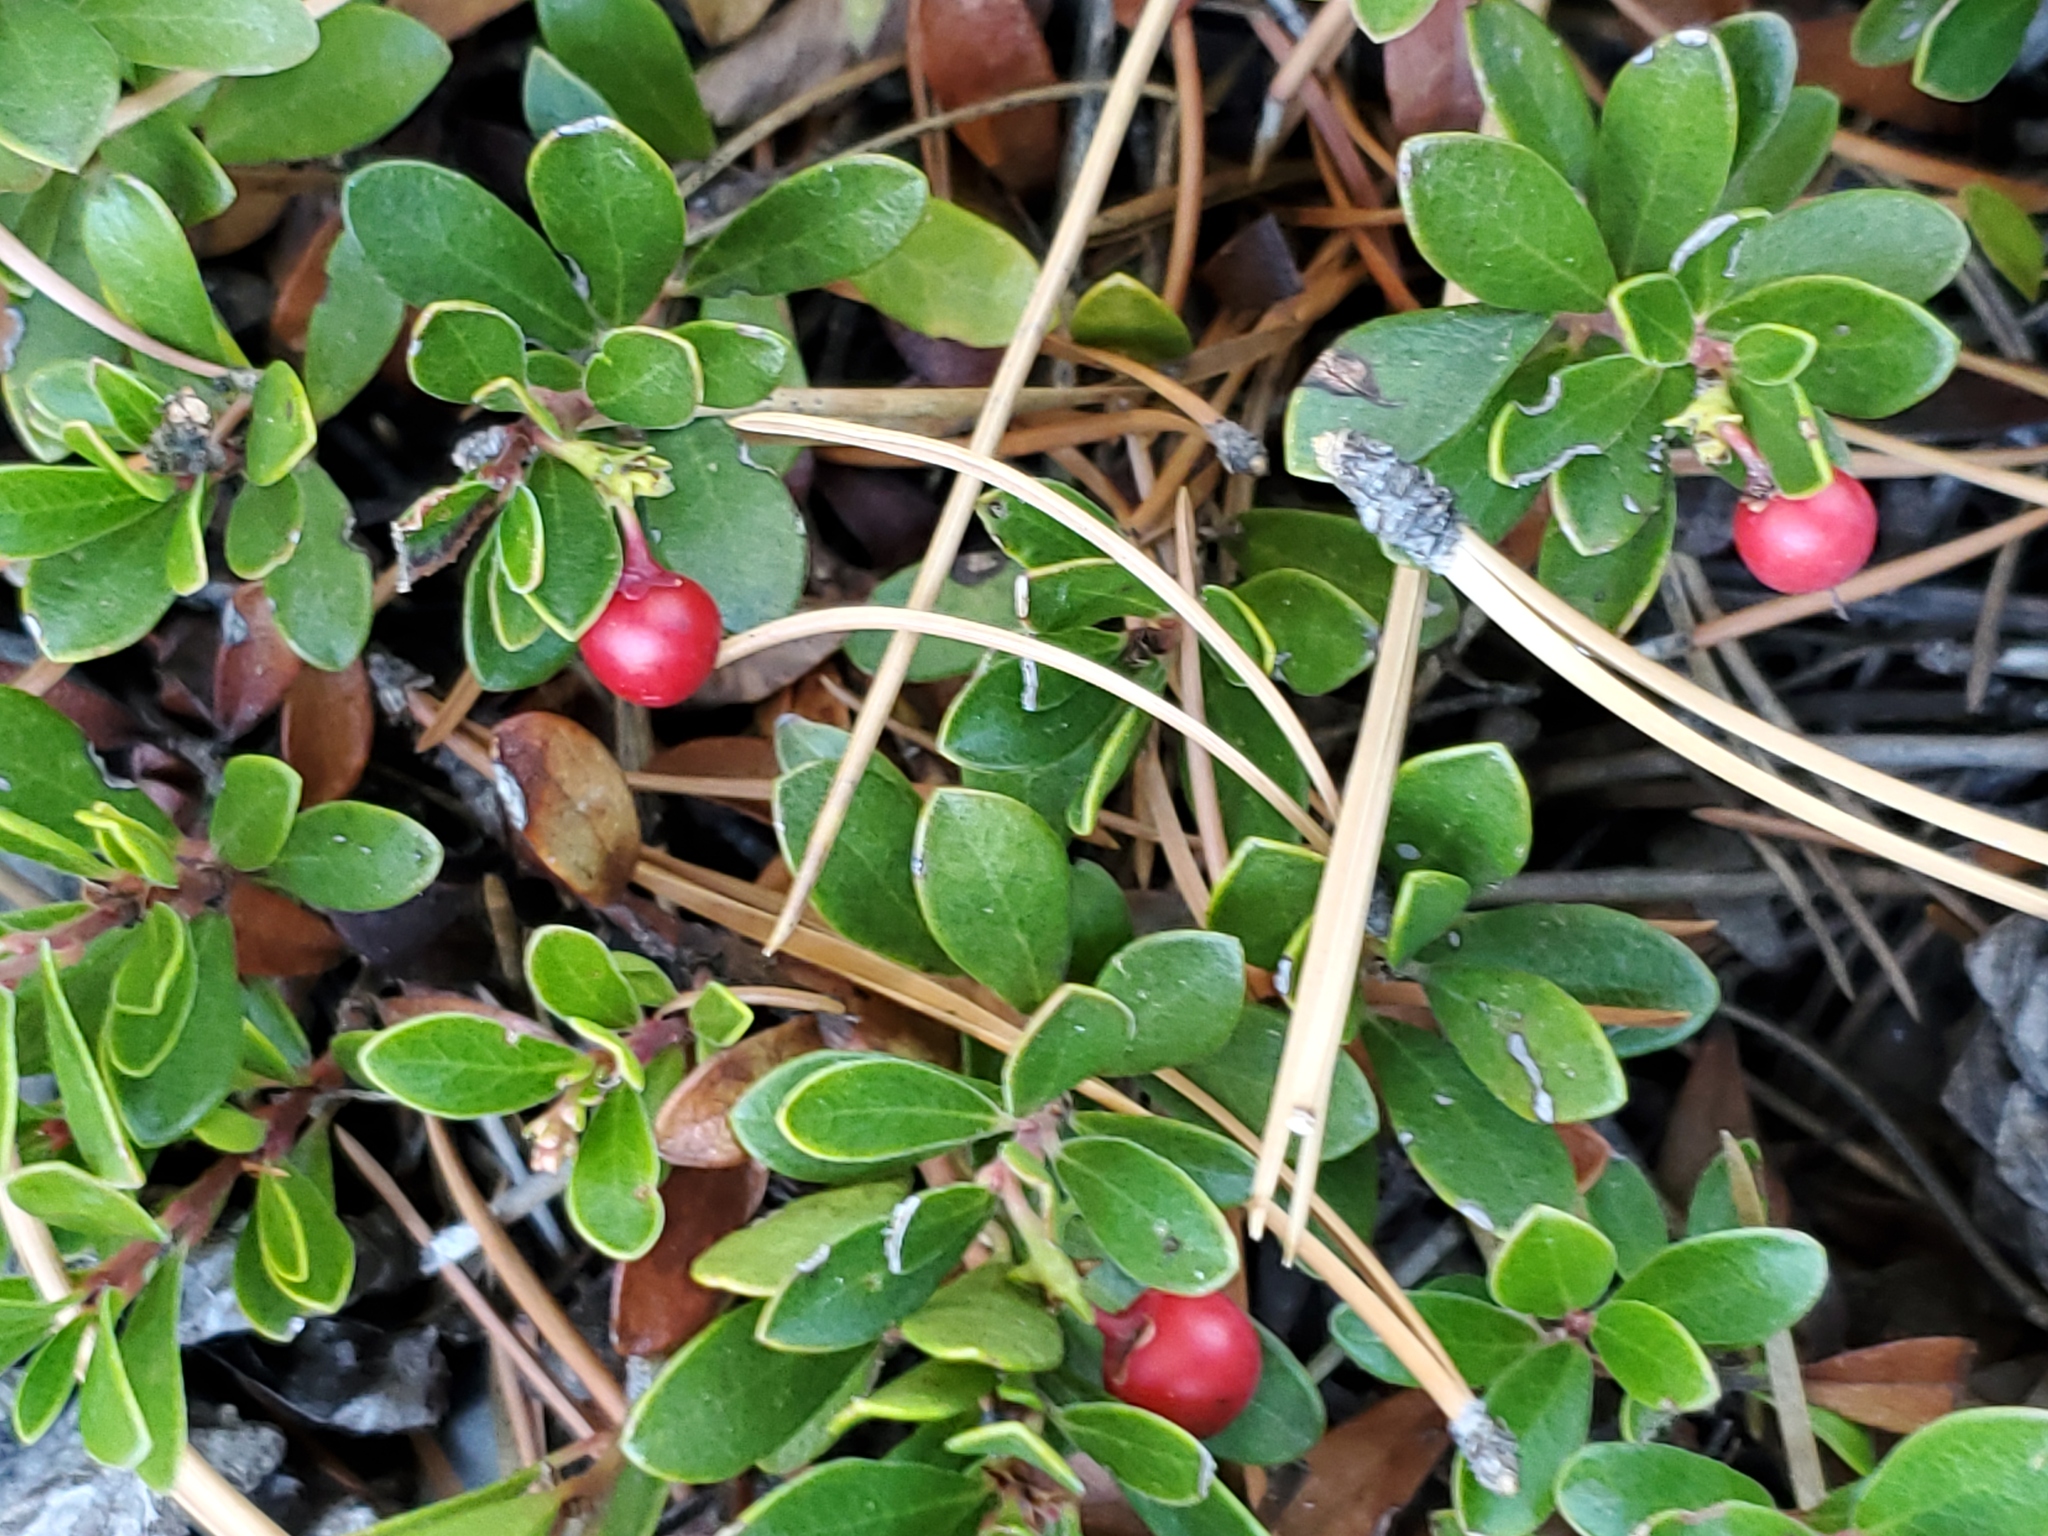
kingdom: Plantae
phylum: Tracheophyta
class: Magnoliopsida
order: Ericales
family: Ericaceae
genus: Arctostaphylos
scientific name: Arctostaphylos uva-ursi
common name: Bearberry
